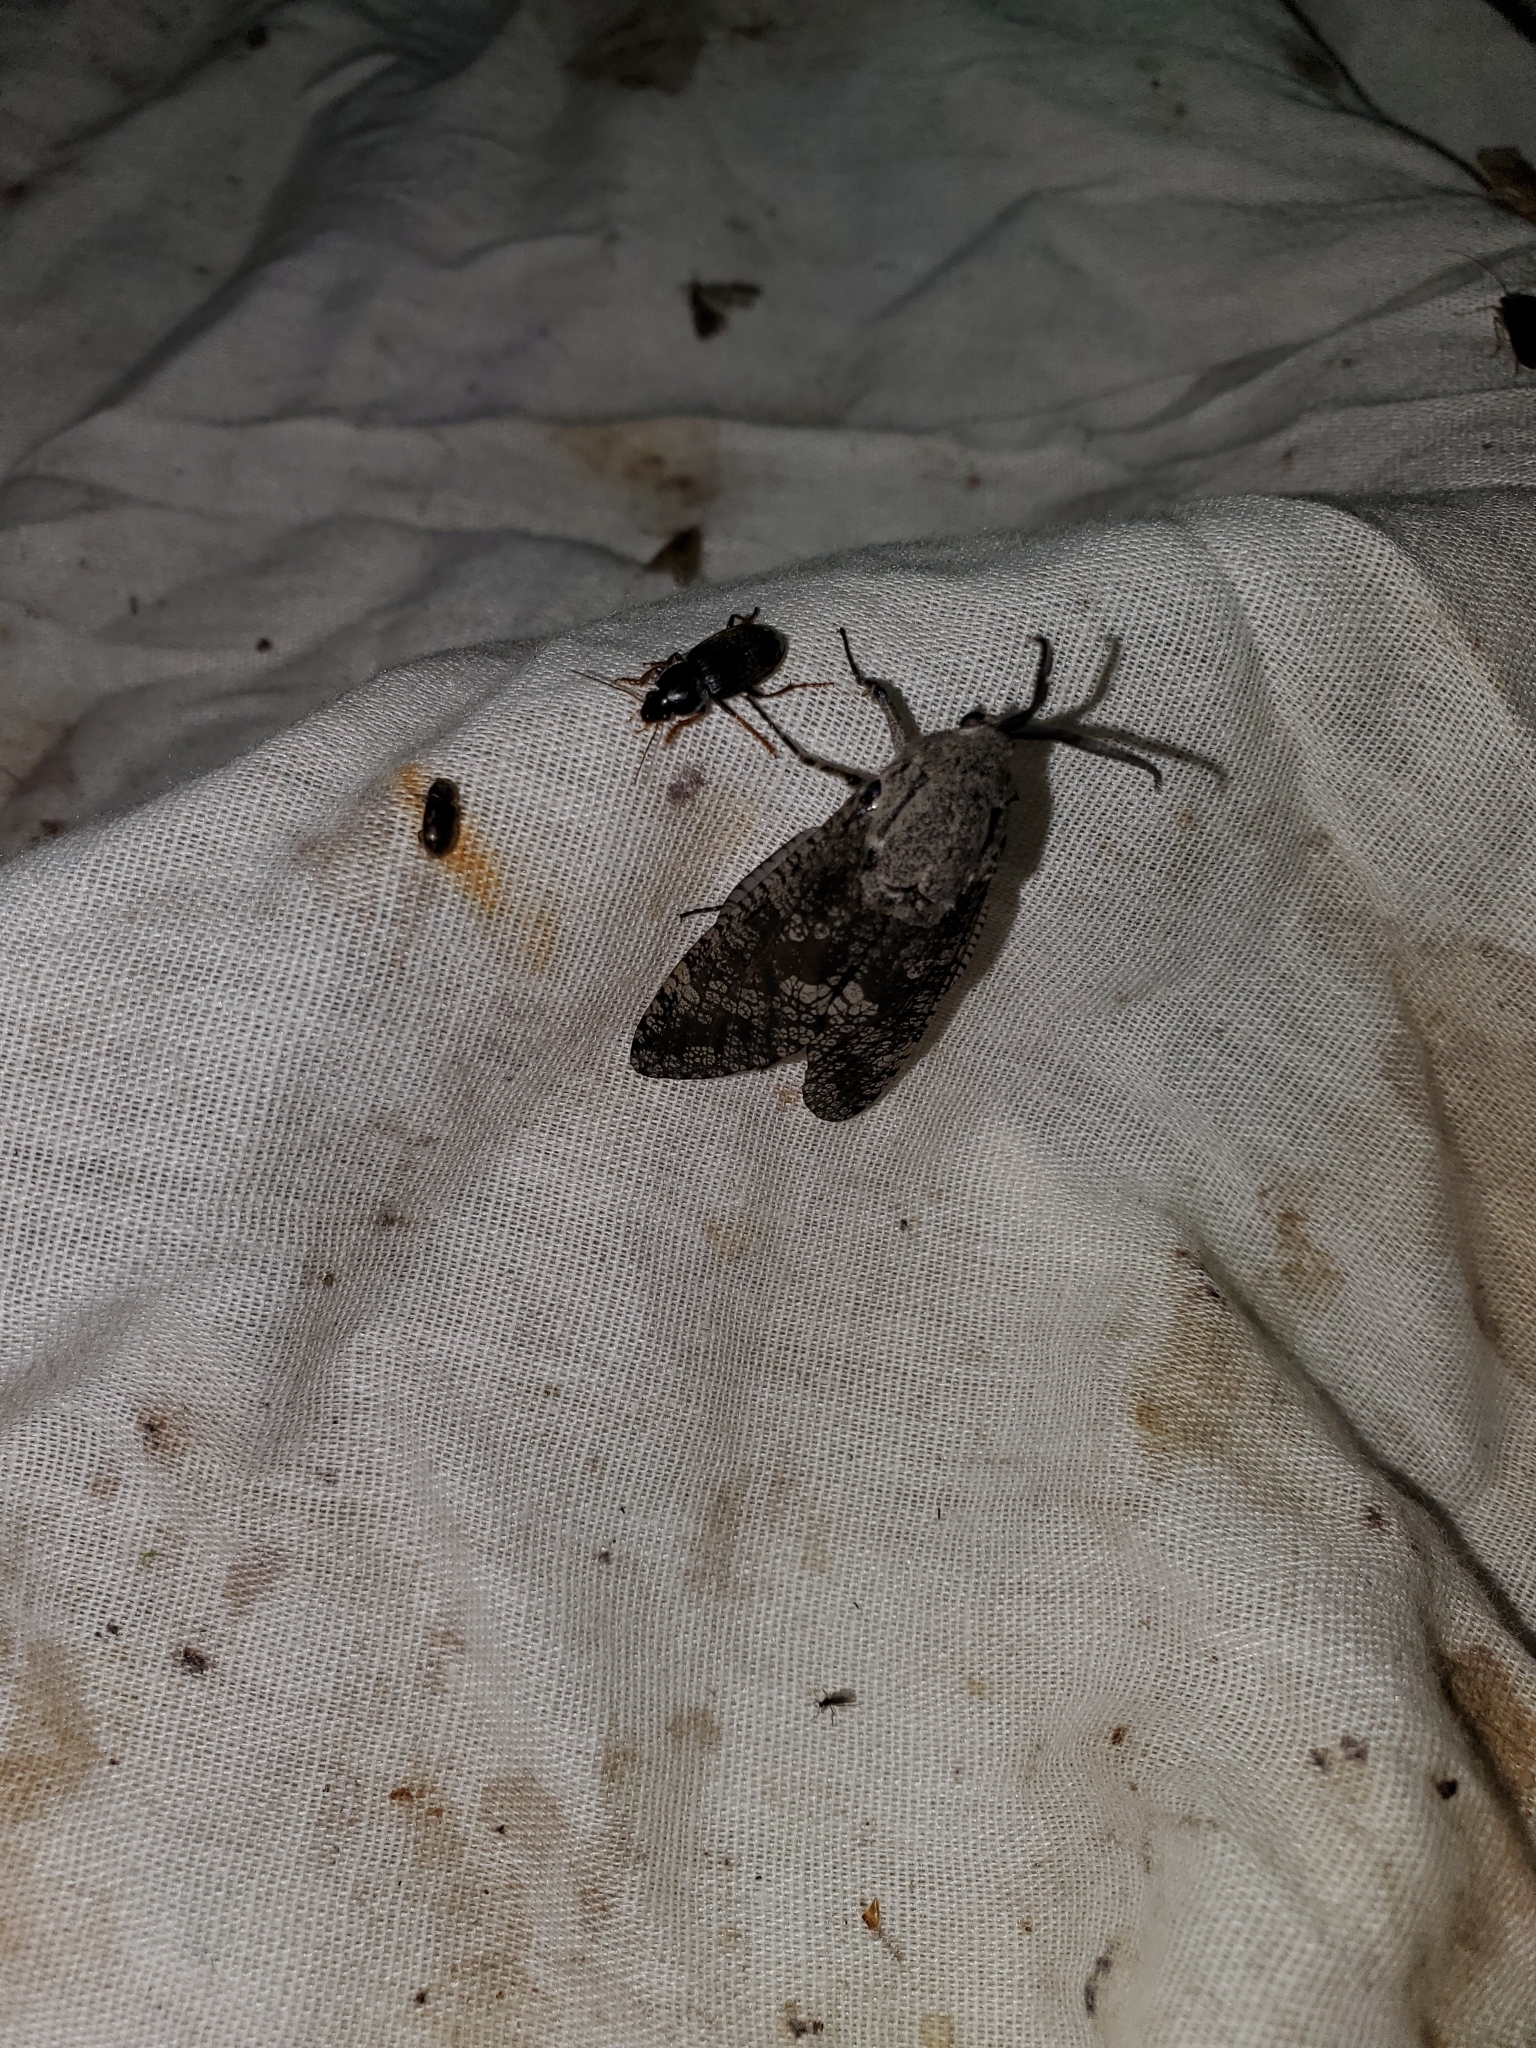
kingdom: Animalia
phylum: Arthropoda
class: Insecta
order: Lepidoptera
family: Cossidae
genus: Prionoxystus
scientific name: Prionoxystus robiniae
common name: Carpenterworm
